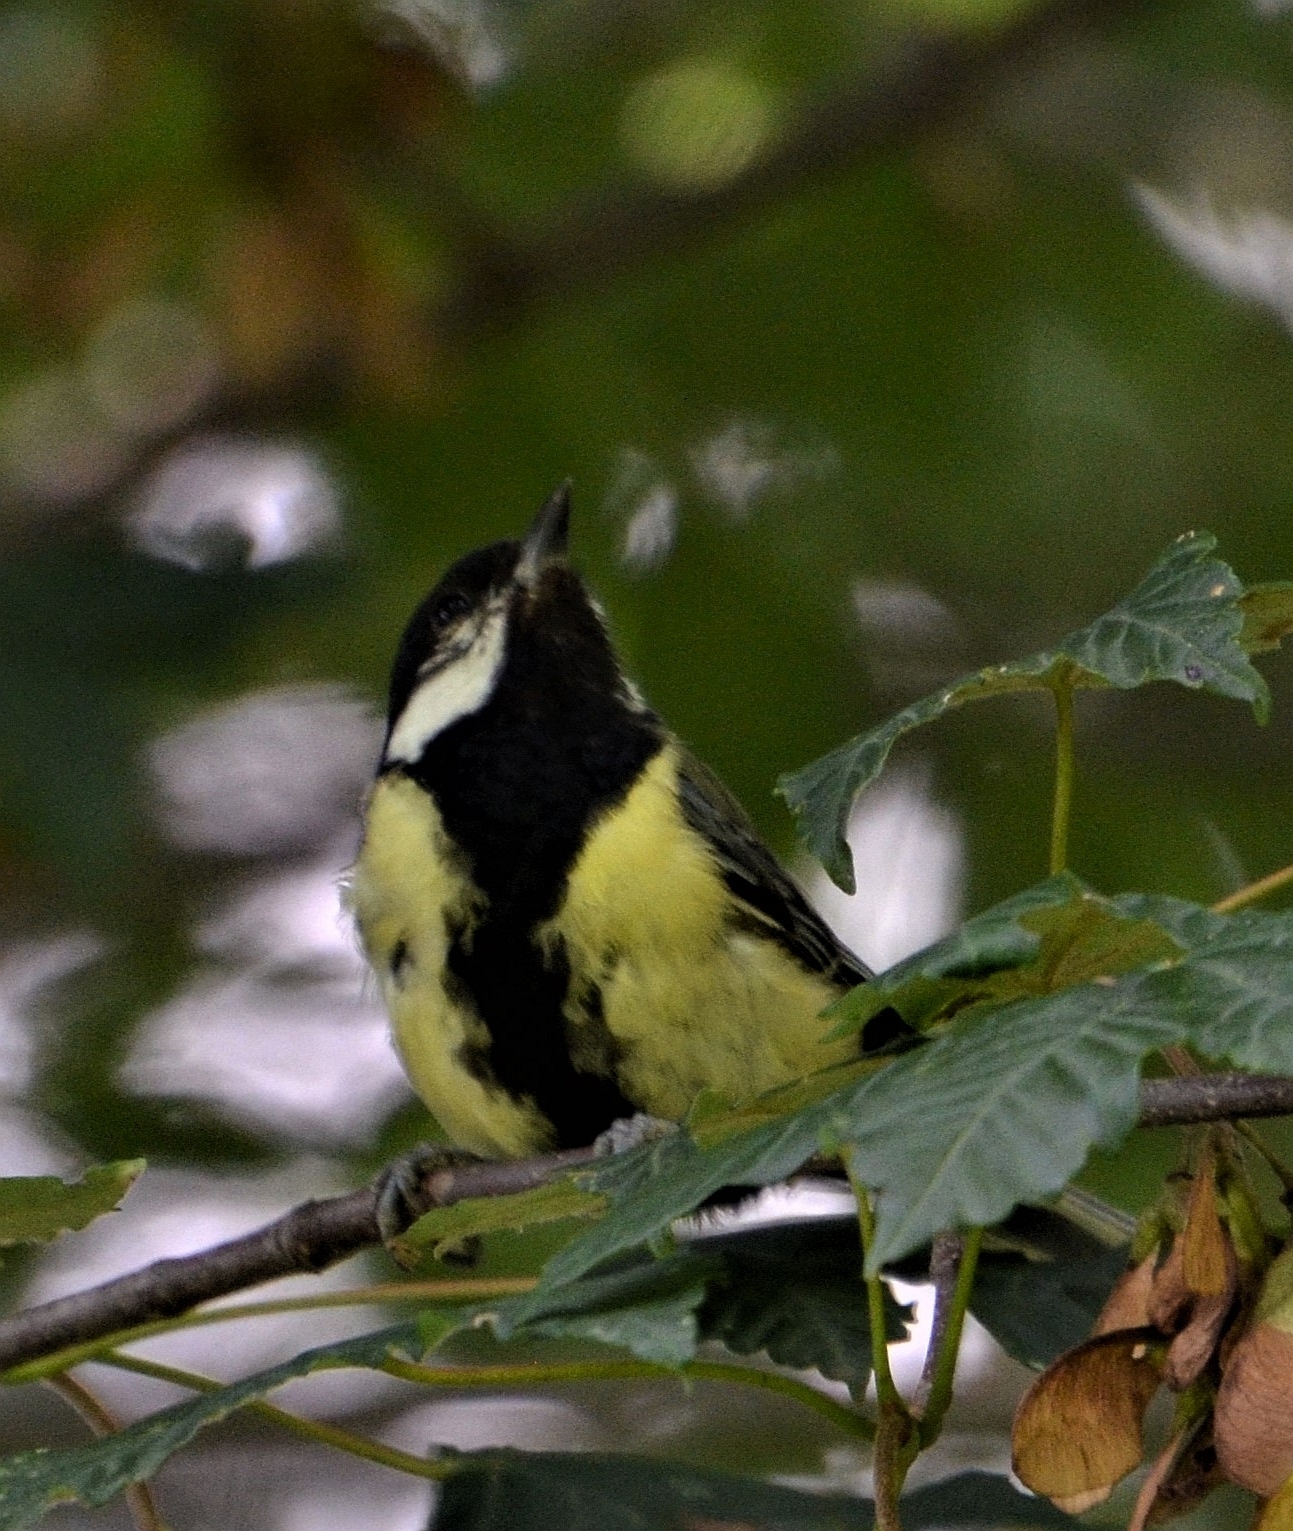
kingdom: Animalia
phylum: Chordata
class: Aves
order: Passeriformes
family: Paridae
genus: Parus
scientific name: Parus major
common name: Great tit
